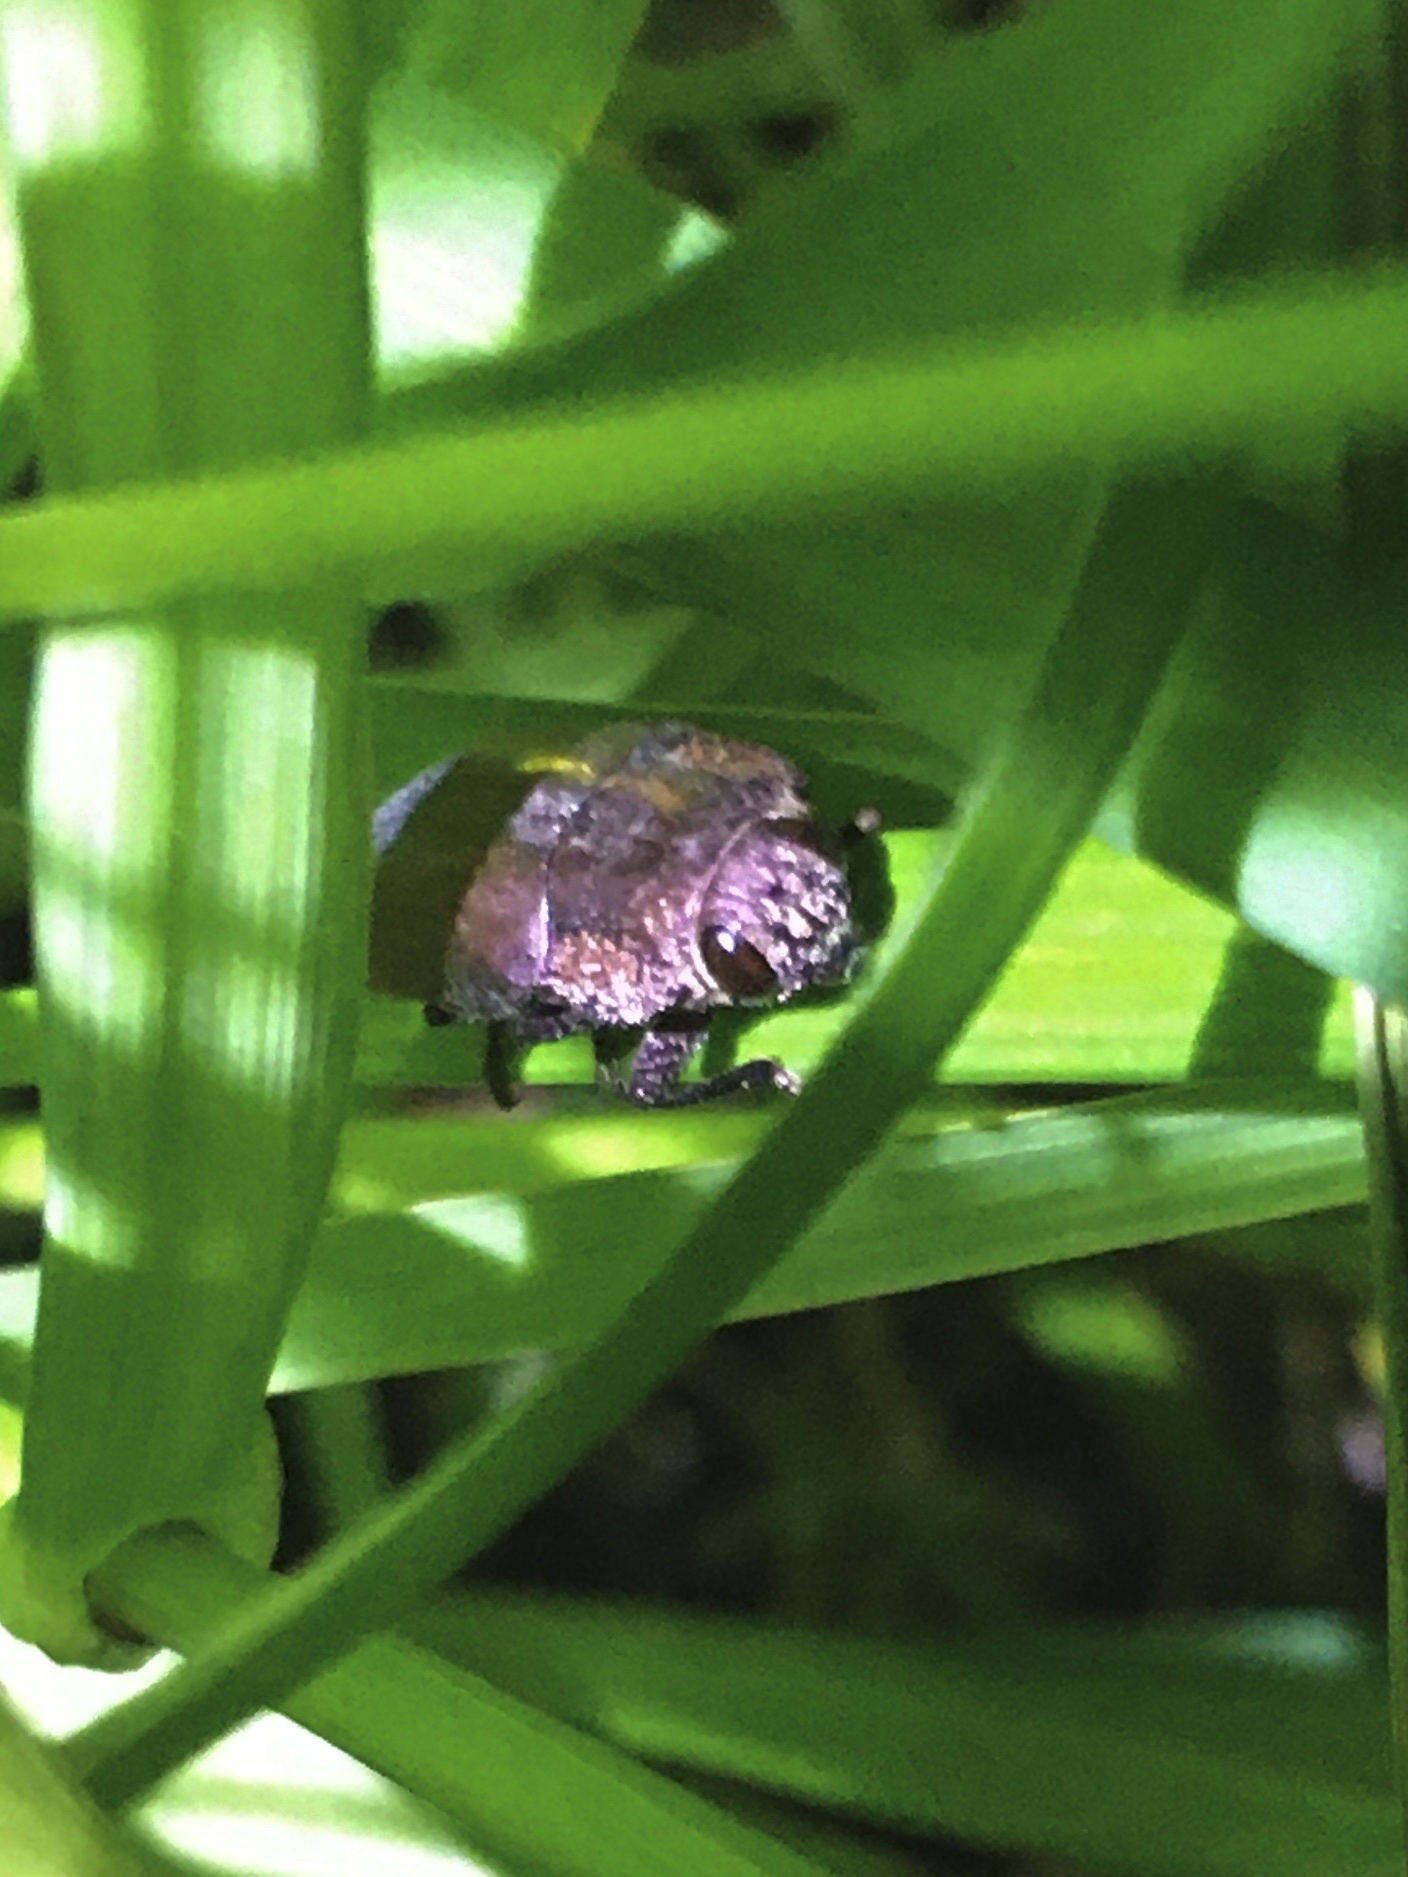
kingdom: Animalia
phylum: Arthropoda
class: Insecta
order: Coleoptera
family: Buprestidae
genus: Oedisterna
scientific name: Oedisterna cuprea
